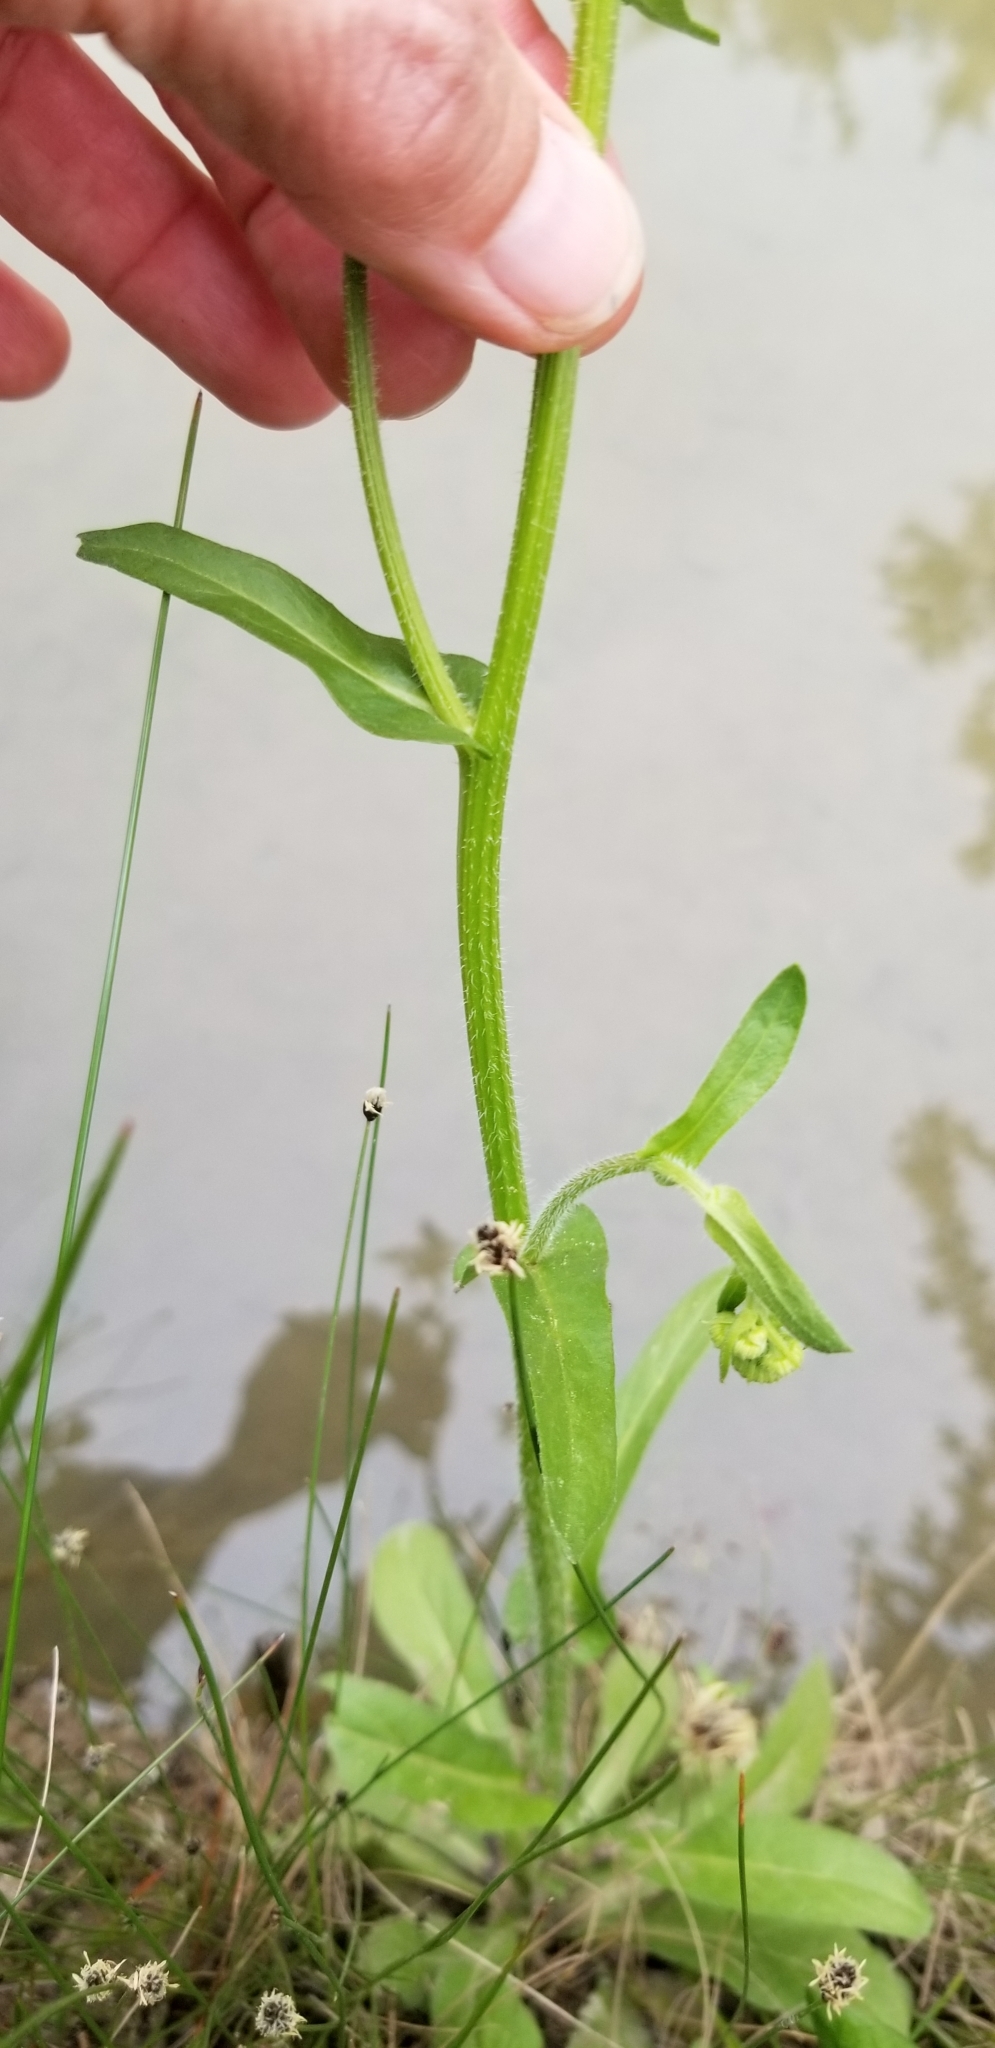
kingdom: Plantae
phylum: Tracheophyta
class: Magnoliopsida
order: Asterales
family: Asteraceae
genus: Erigeron
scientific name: Erigeron philadelphicus
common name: Robin's-plantain
